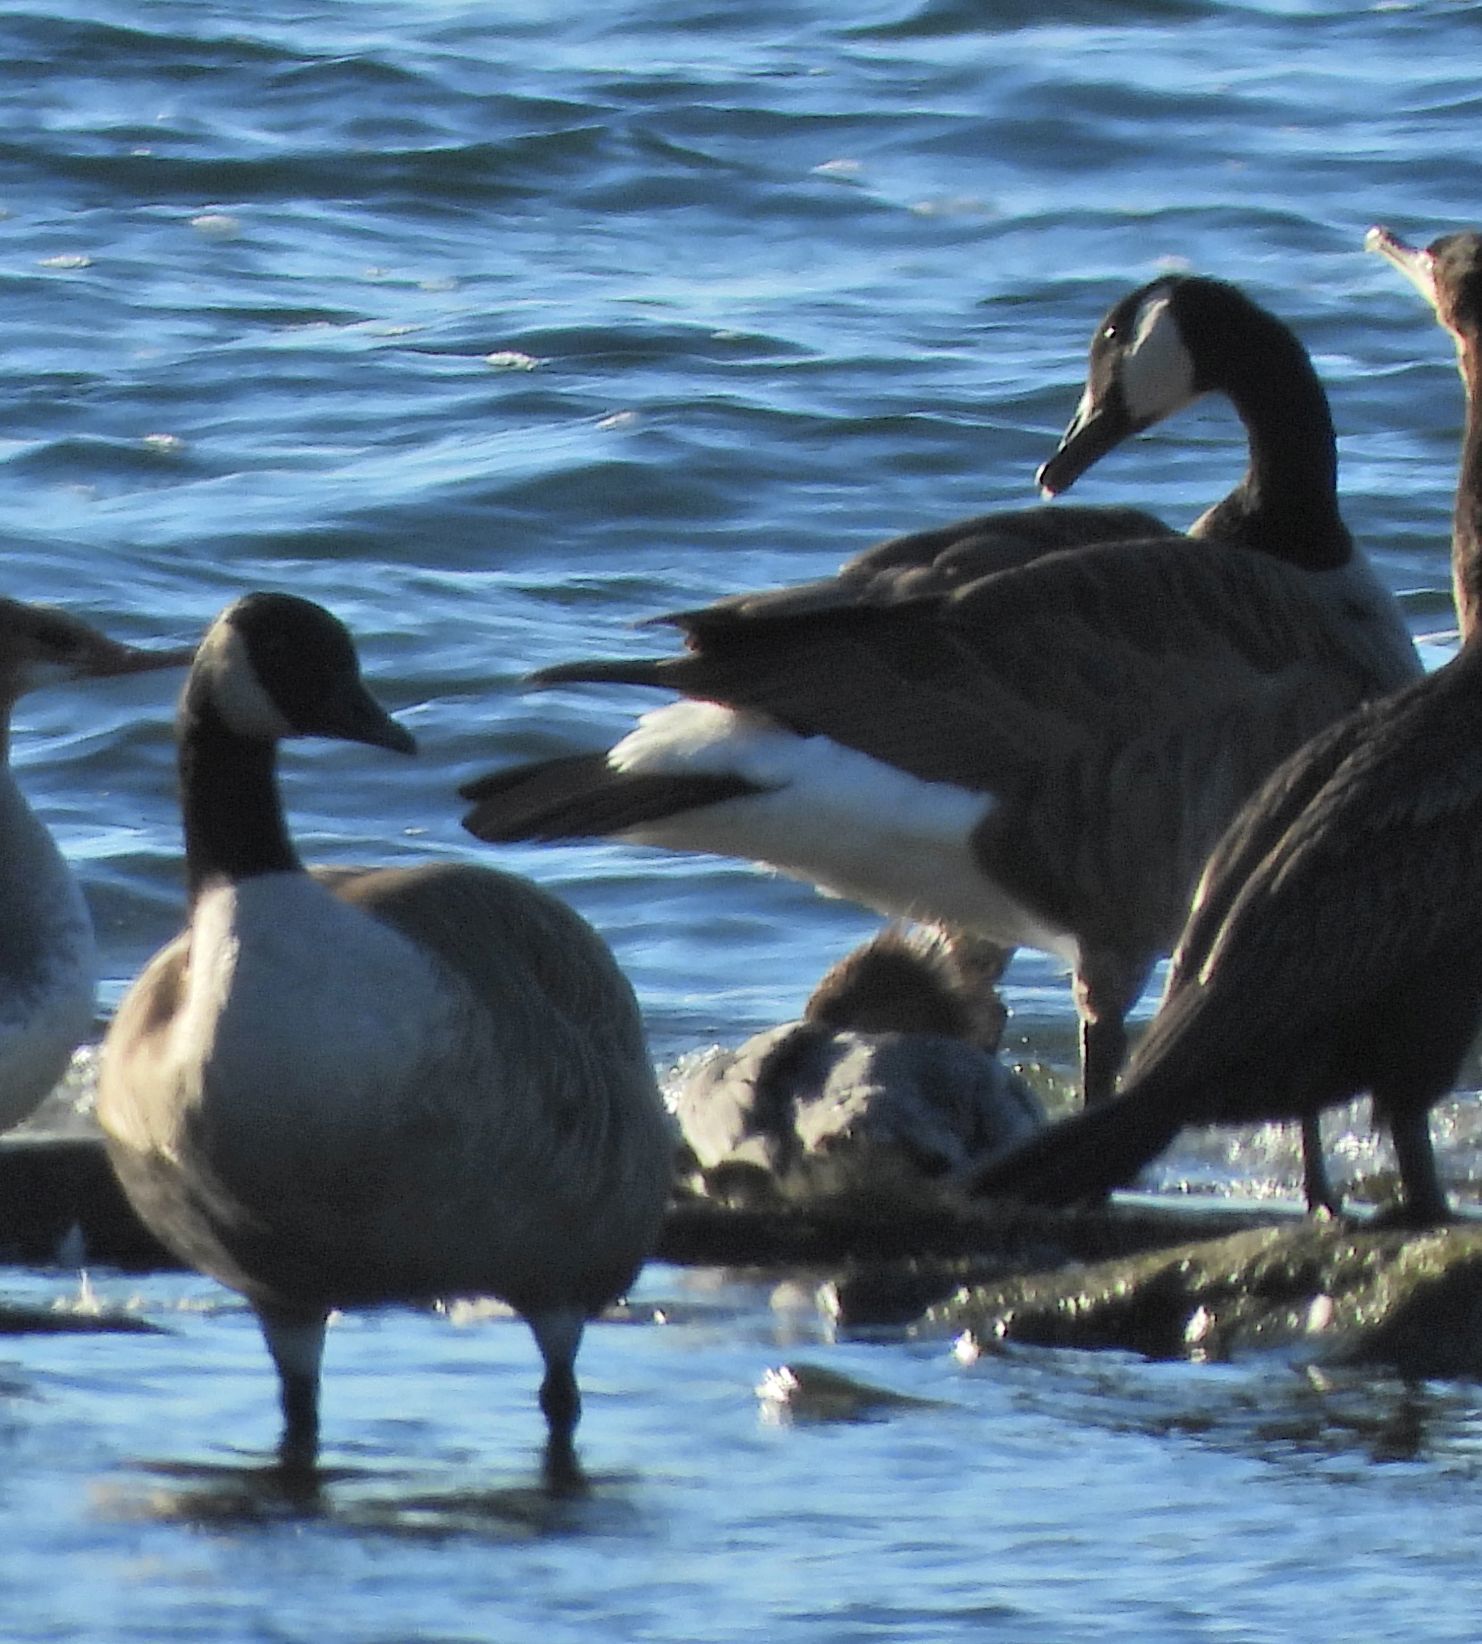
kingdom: Animalia
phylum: Chordata
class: Aves
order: Anseriformes
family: Anatidae
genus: Branta
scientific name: Branta canadensis
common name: Canada goose
